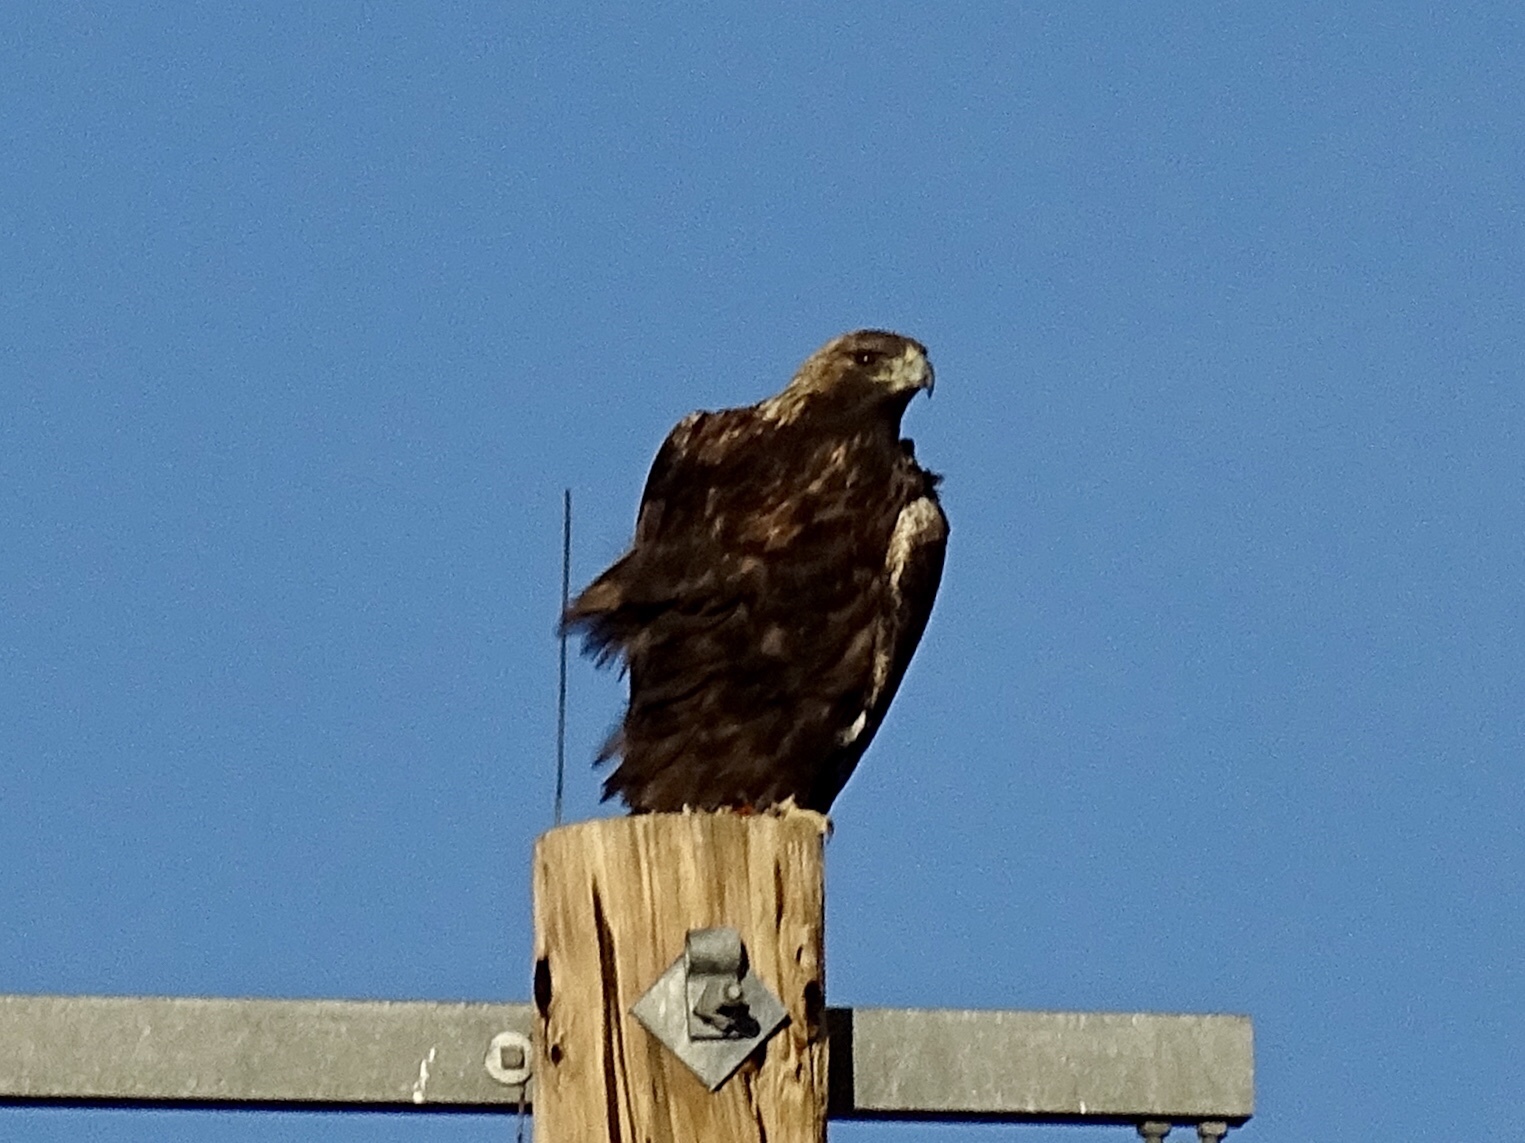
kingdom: Animalia
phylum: Chordata
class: Aves
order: Accipitriformes
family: Accipitridae
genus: Aquila
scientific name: Aquila chrysaetos
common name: Golden eagle
